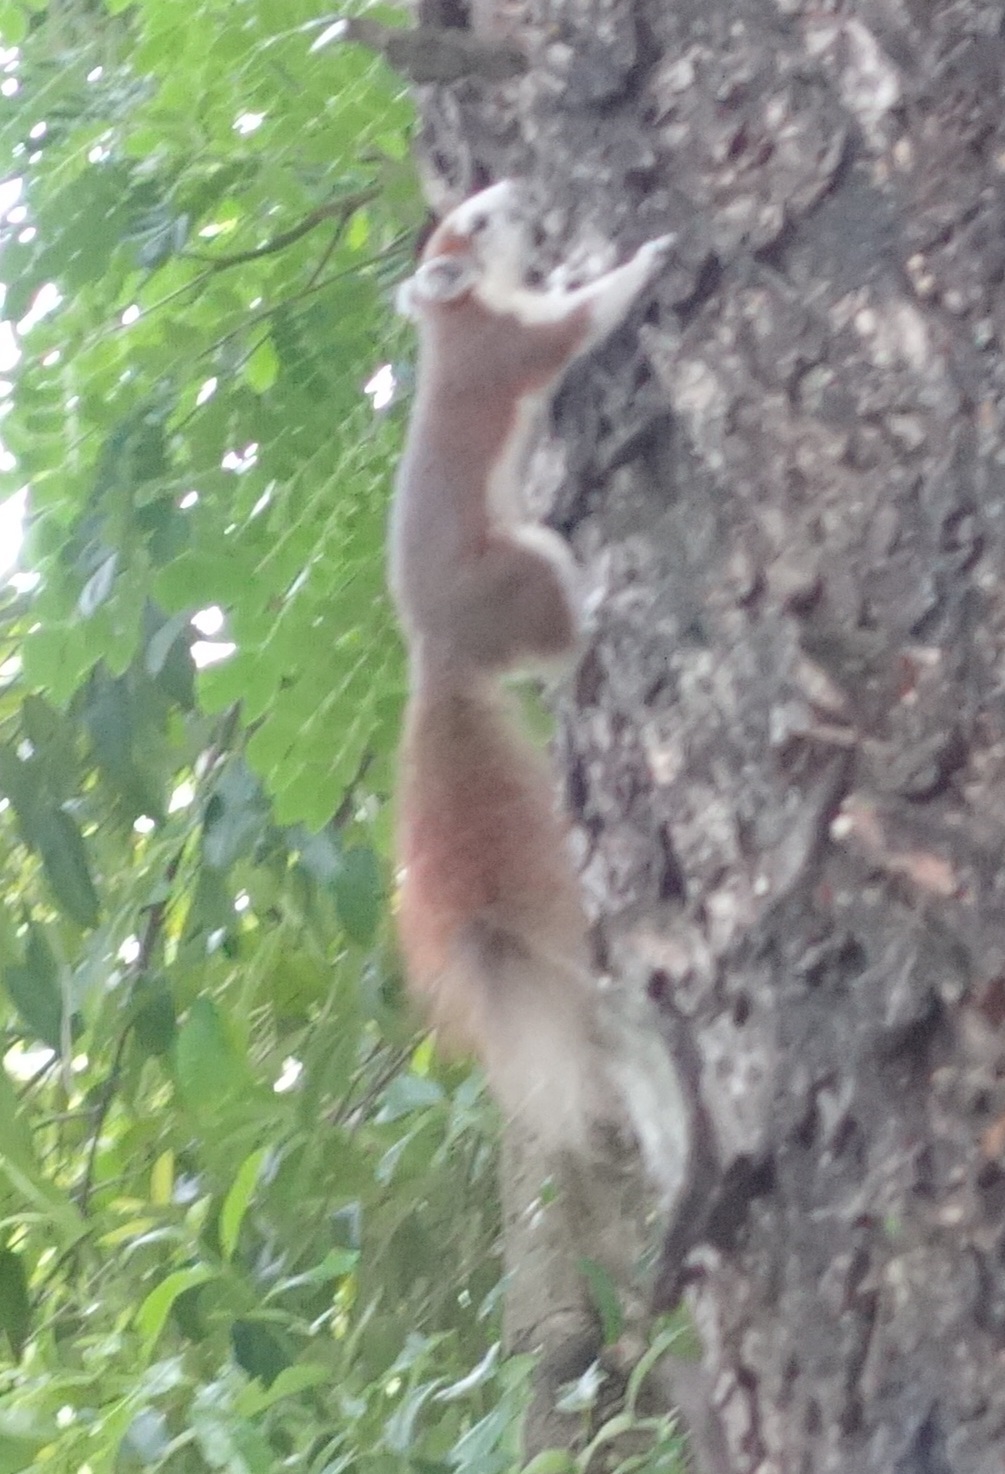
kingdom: Animalia
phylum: Chordata
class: Mammalia
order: Rodentia
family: Sciuridae
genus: Callosciurus
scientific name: Callosciurus finlaysonii
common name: Finlayson's squirrel
